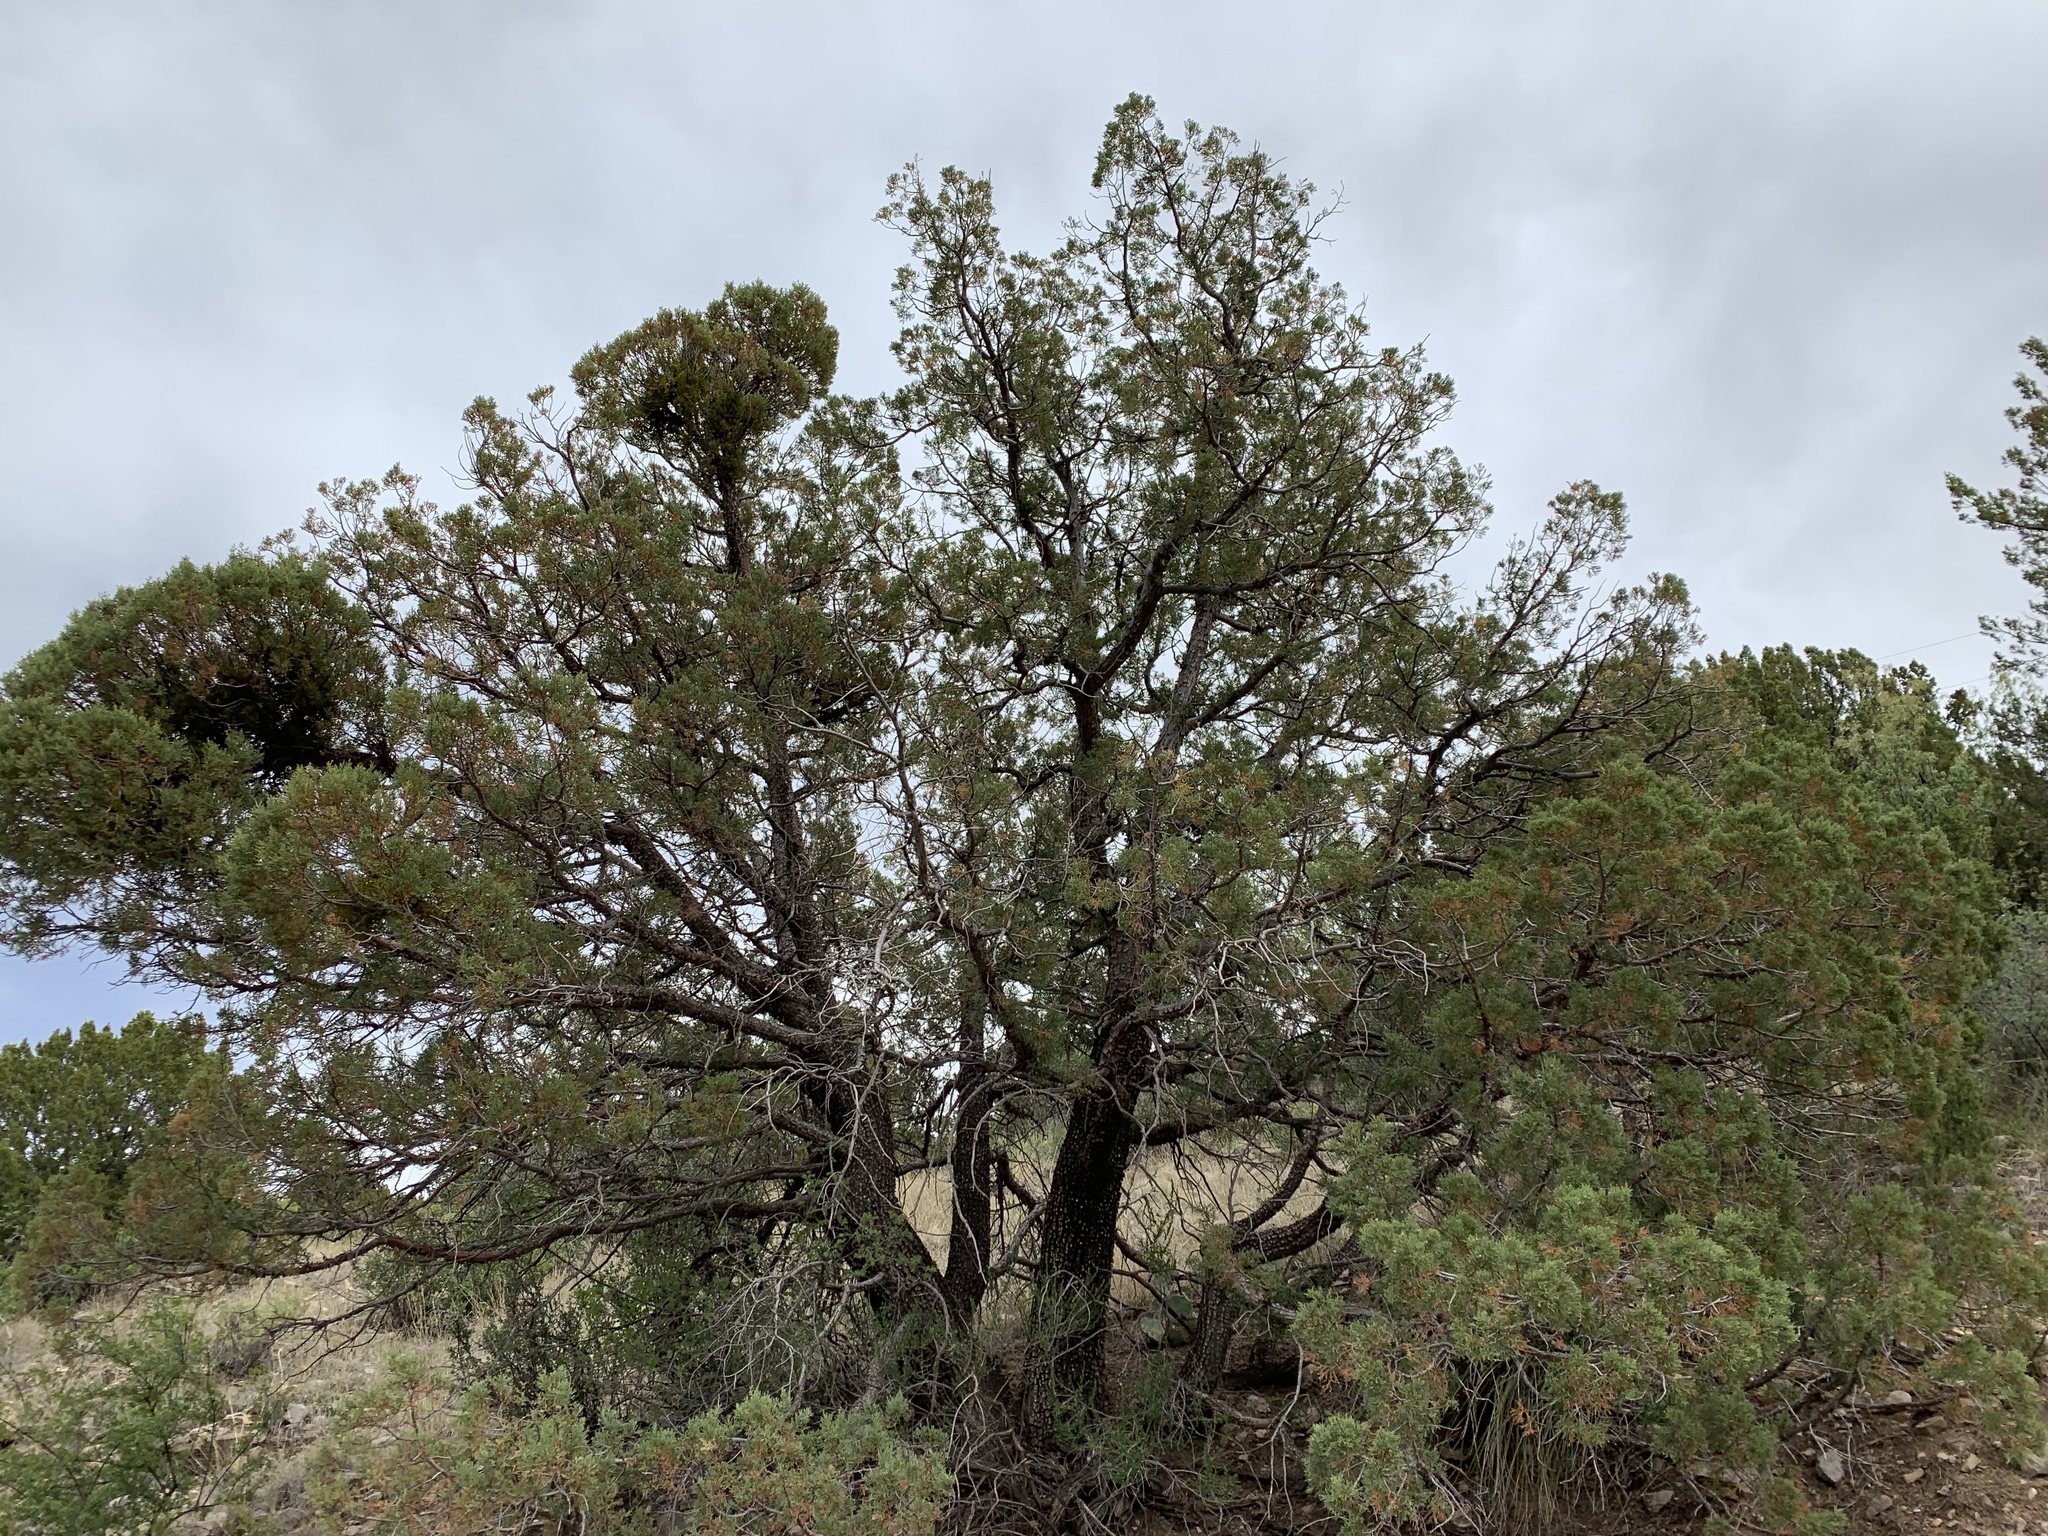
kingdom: Plantae
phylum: Tracheophyta
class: Pinopsida
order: Pinales
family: Cupressaceae
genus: Juniperus
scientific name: Juniperus deppeana
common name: Alligator juniper
